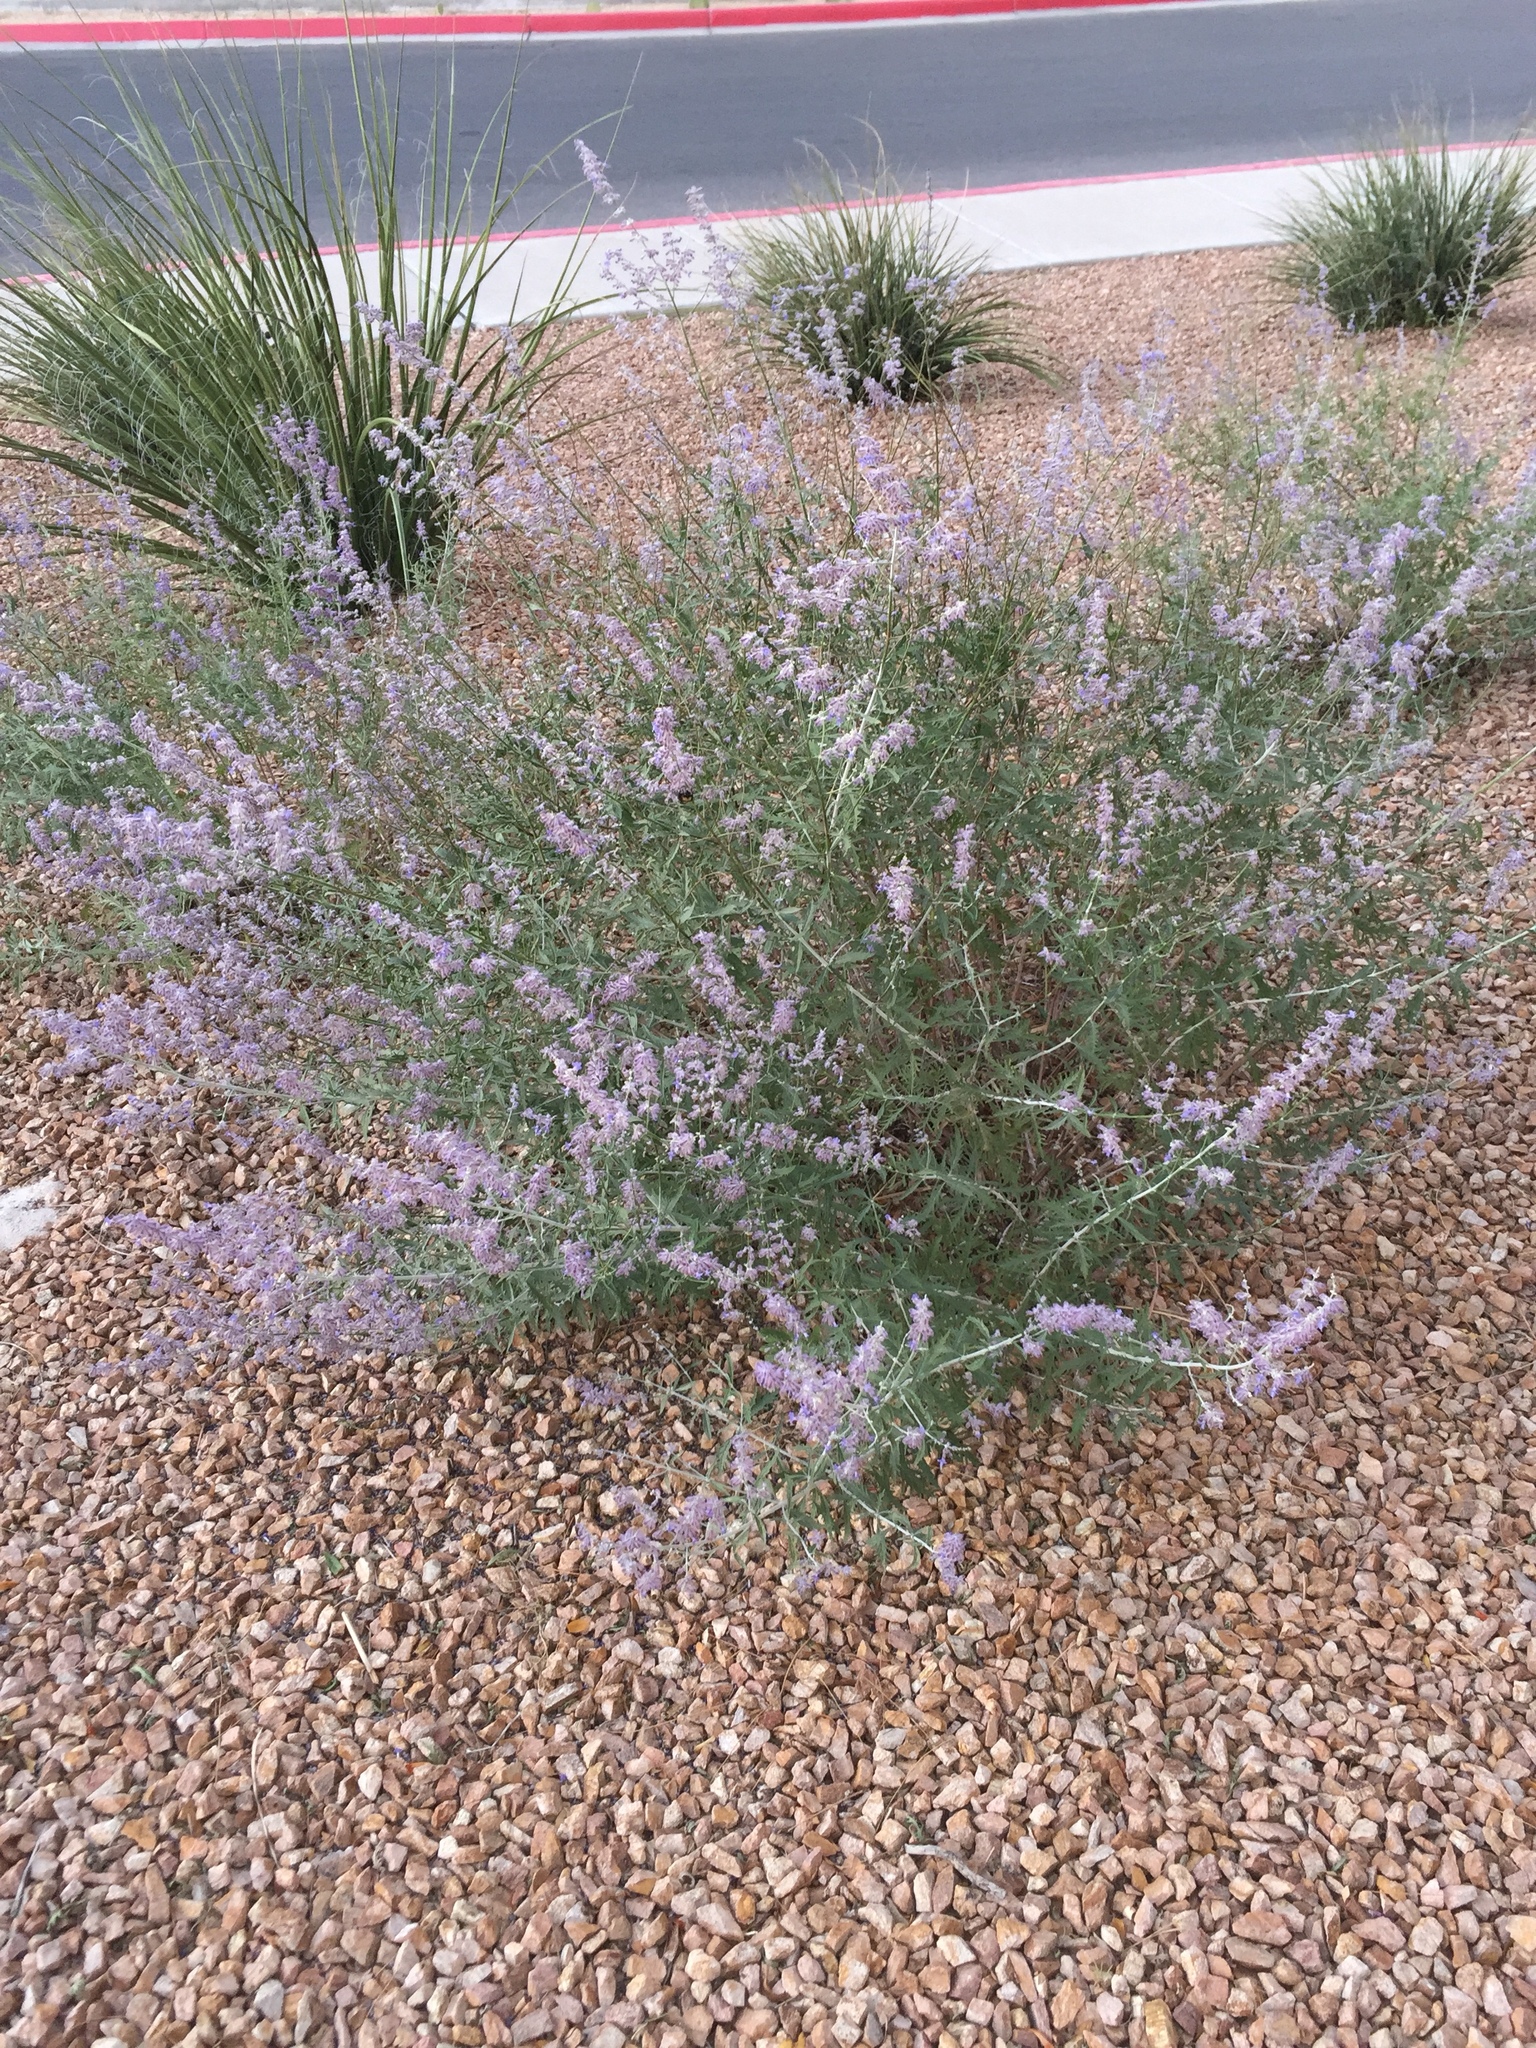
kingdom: Animalia
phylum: Arthropoda
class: Insecta
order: Hymenoptera
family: Apidae
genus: Bombus
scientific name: Bombus sonorus
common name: Sonoran bumble bee
